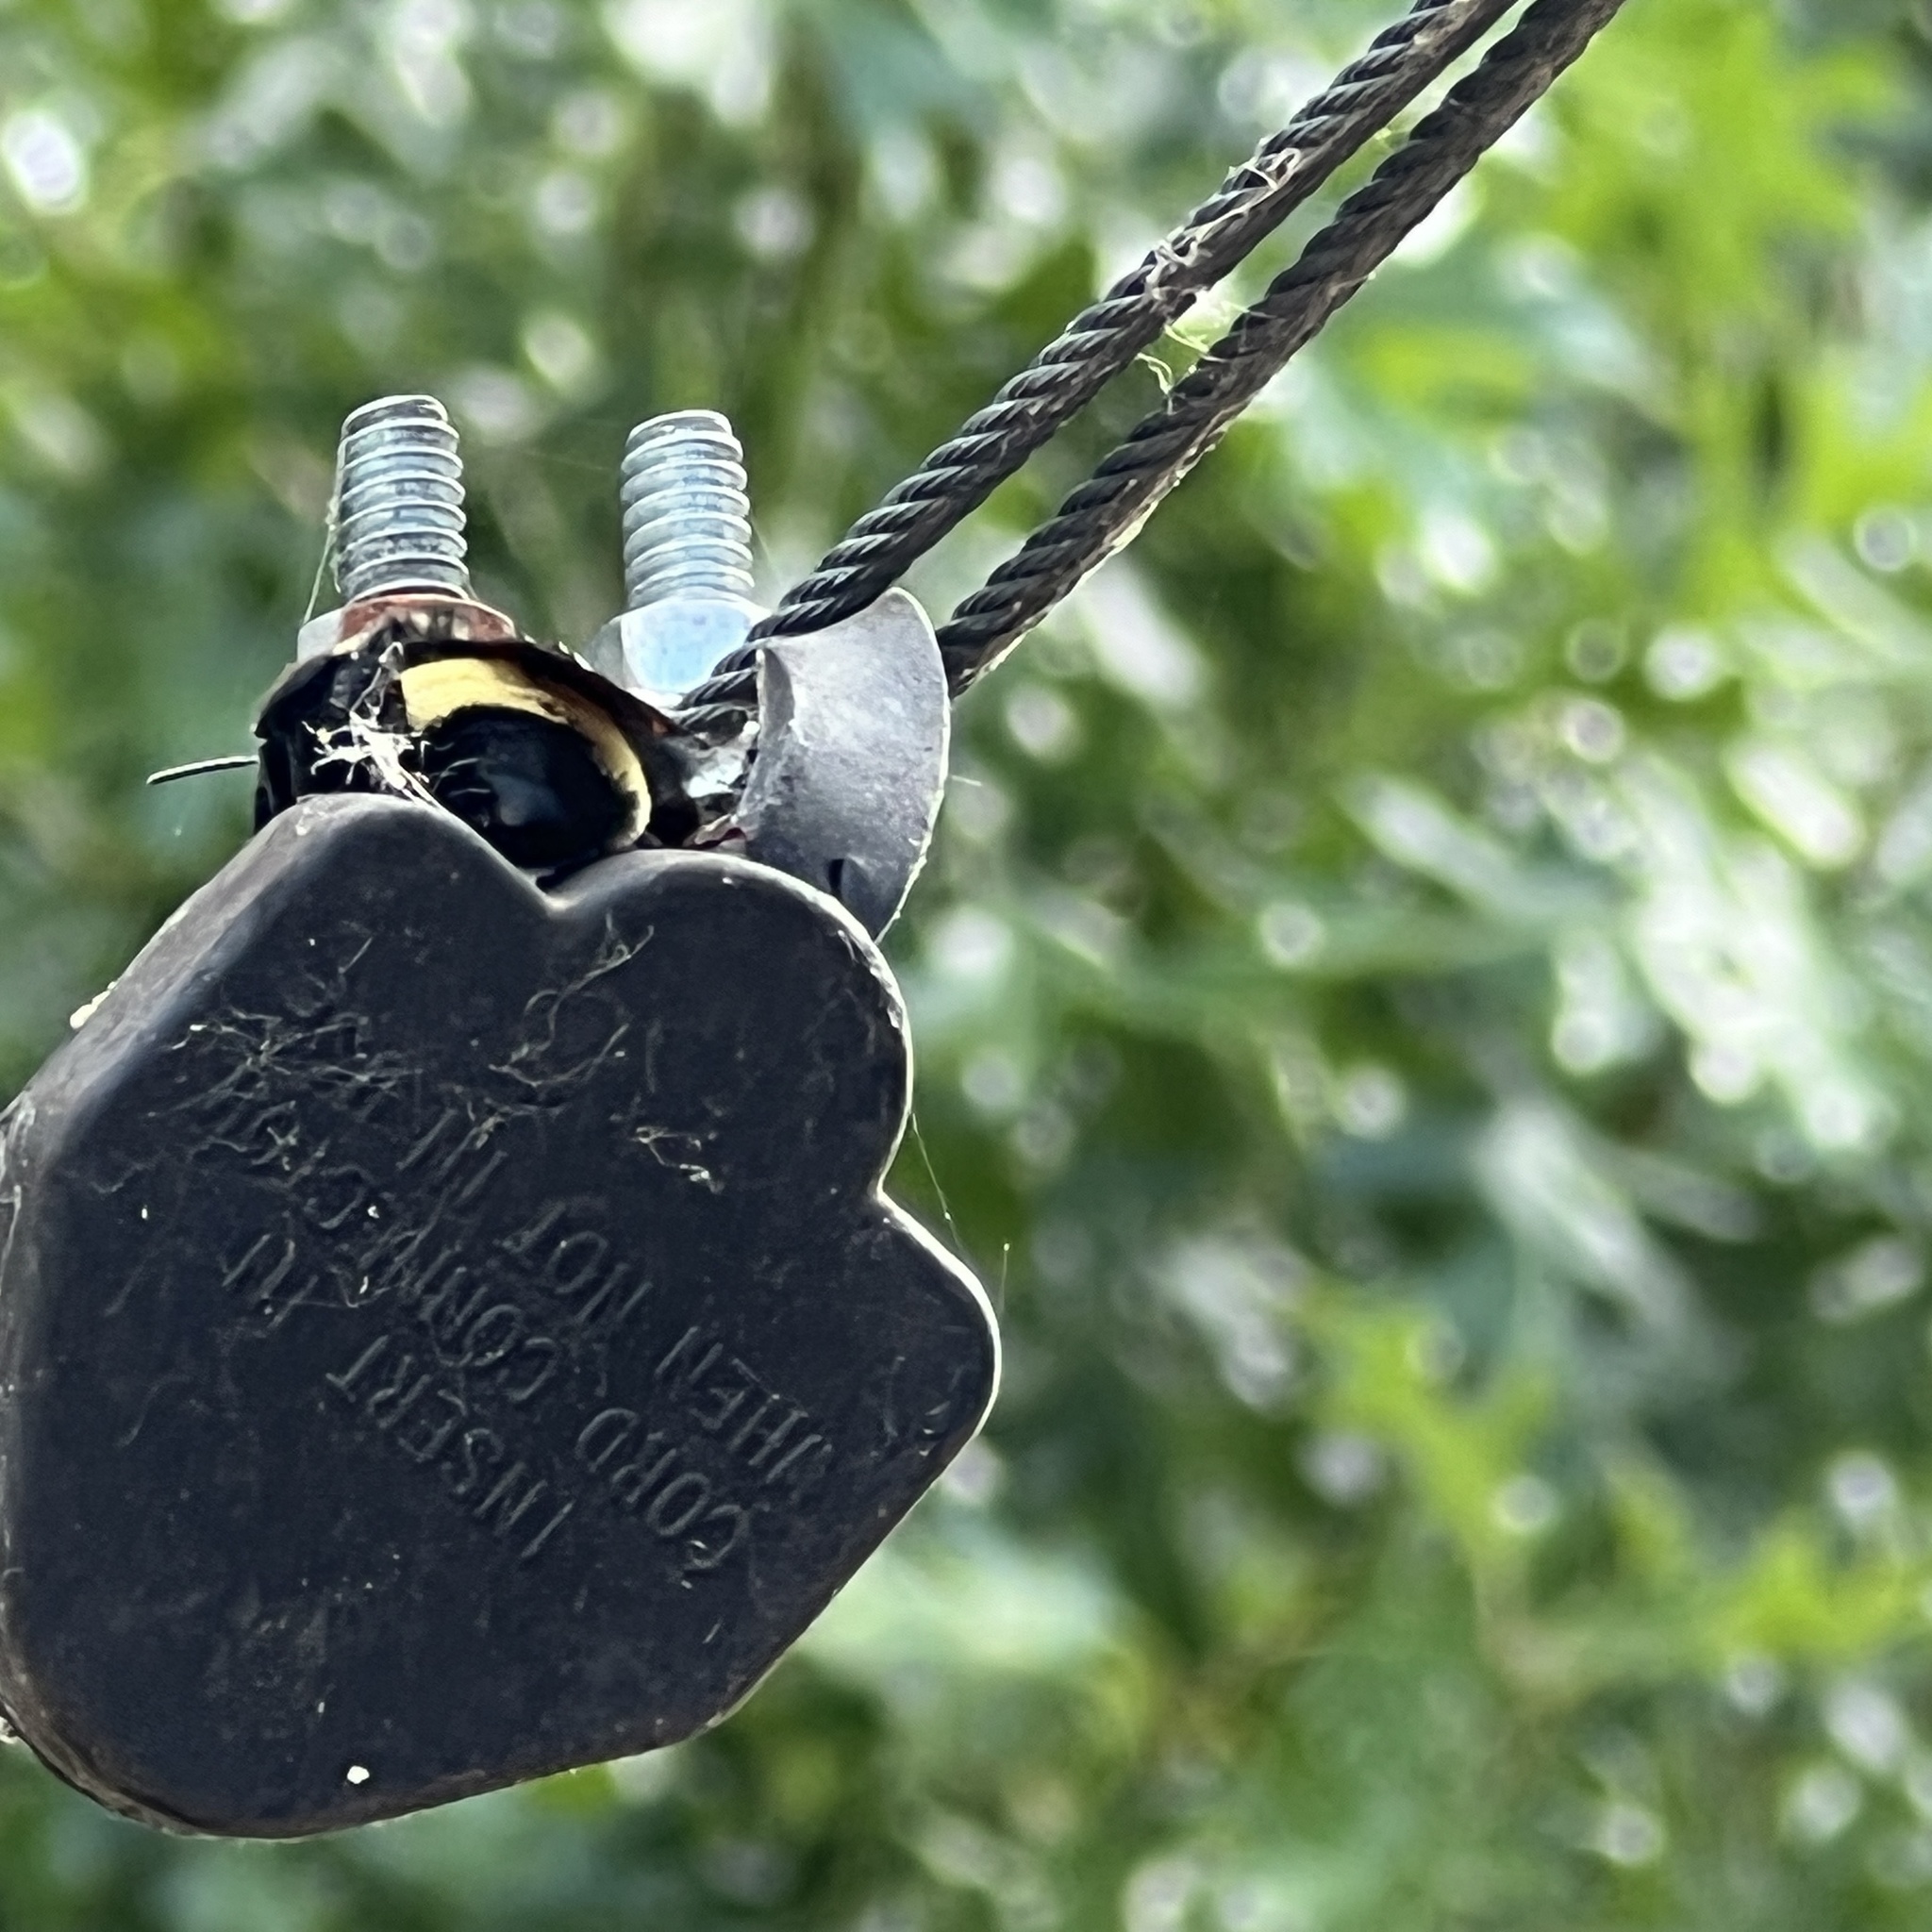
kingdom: Animalia
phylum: Arthropoda
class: Insecta
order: Hymenoptera
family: Apidae
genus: Bombus
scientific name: Bombus pensylvanicus
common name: Bumble bee
